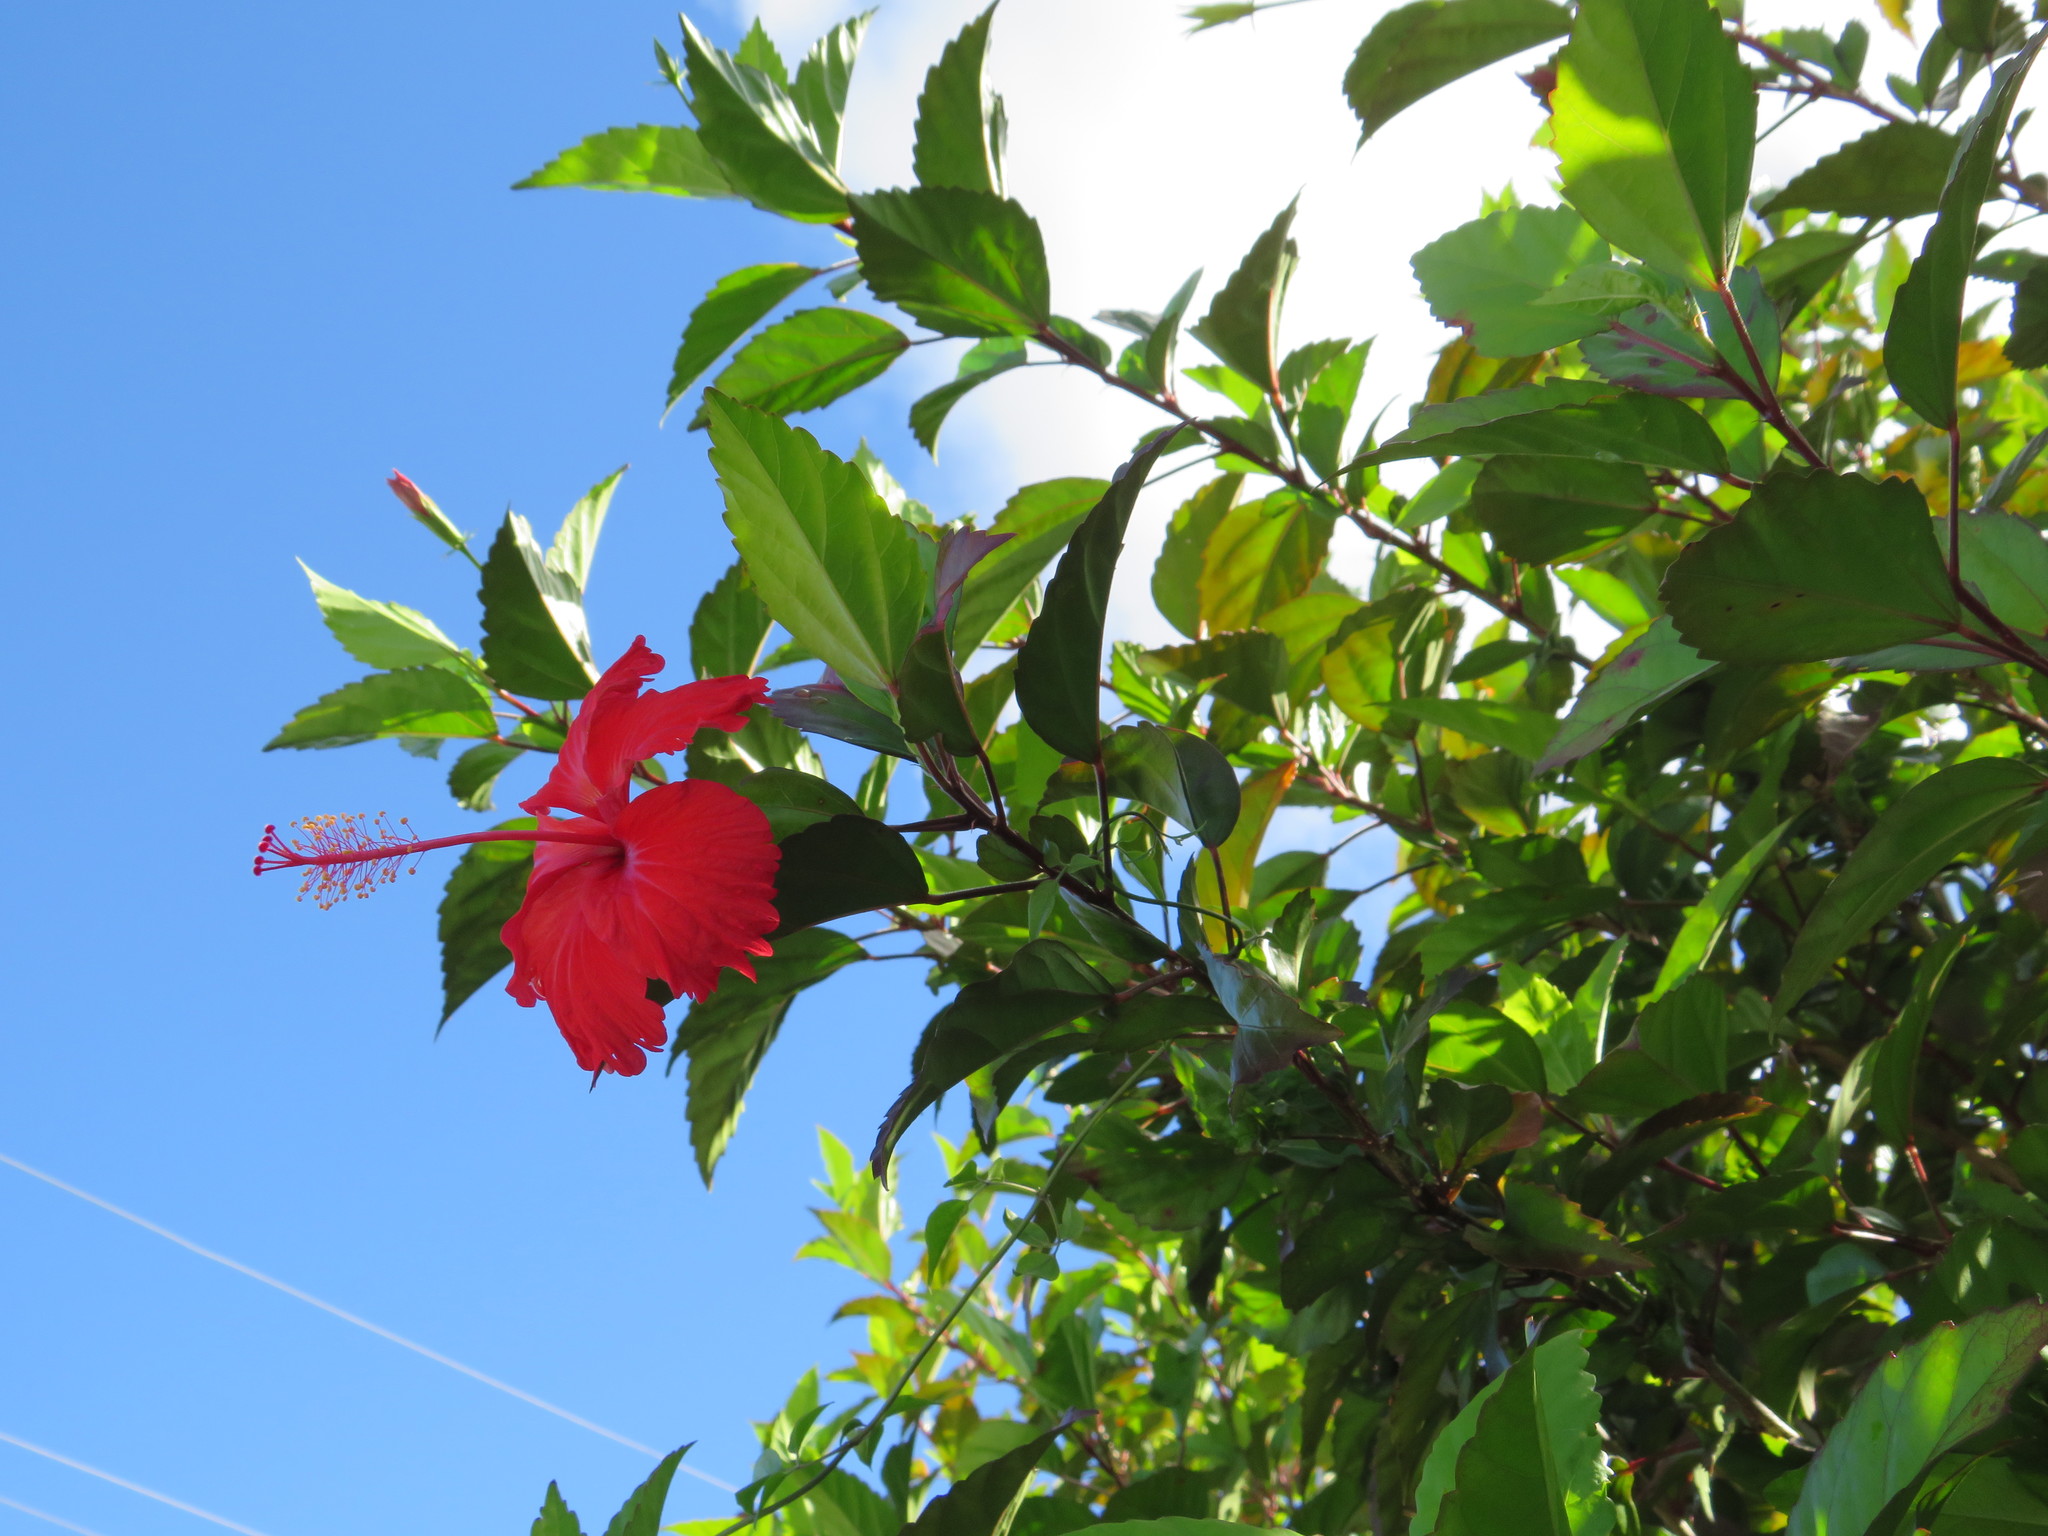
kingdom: Plantae
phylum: Tracheophyta
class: Magnoliopsida
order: Malvales
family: Malvaceae
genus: Hibiscus
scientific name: Hibiscus archeri
